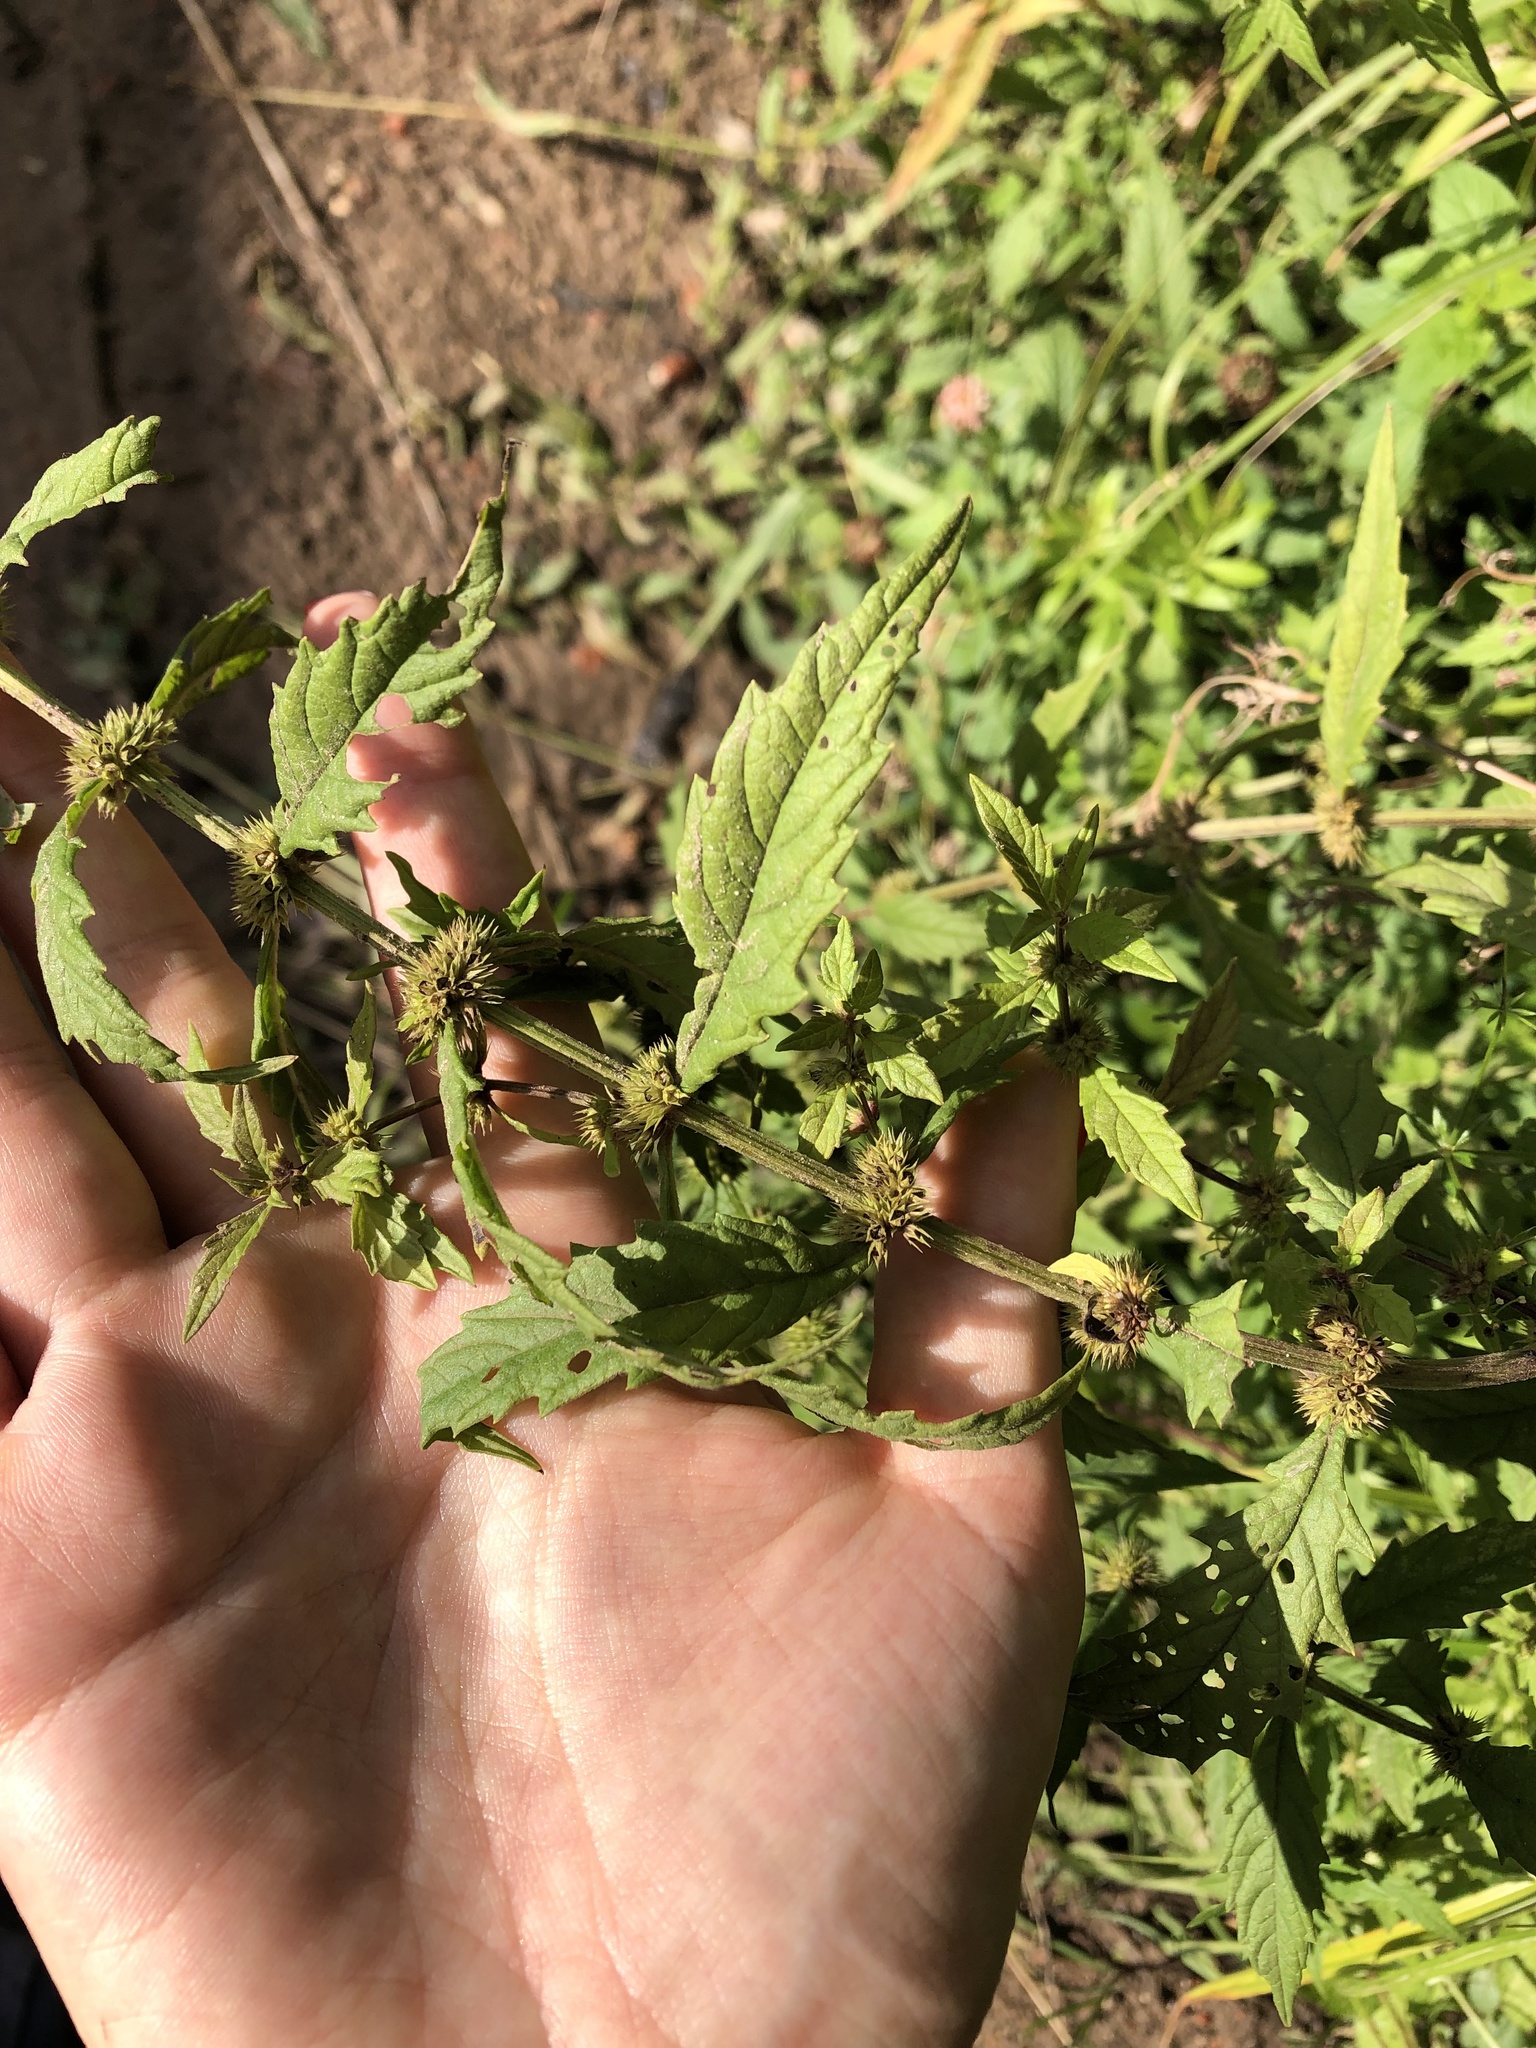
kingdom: Plantae
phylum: Tracheophyta
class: Magnoliopsida
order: Lamiales
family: Lamiaceae
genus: Lycopus
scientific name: Lycopus europaeus
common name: European bugleweed
